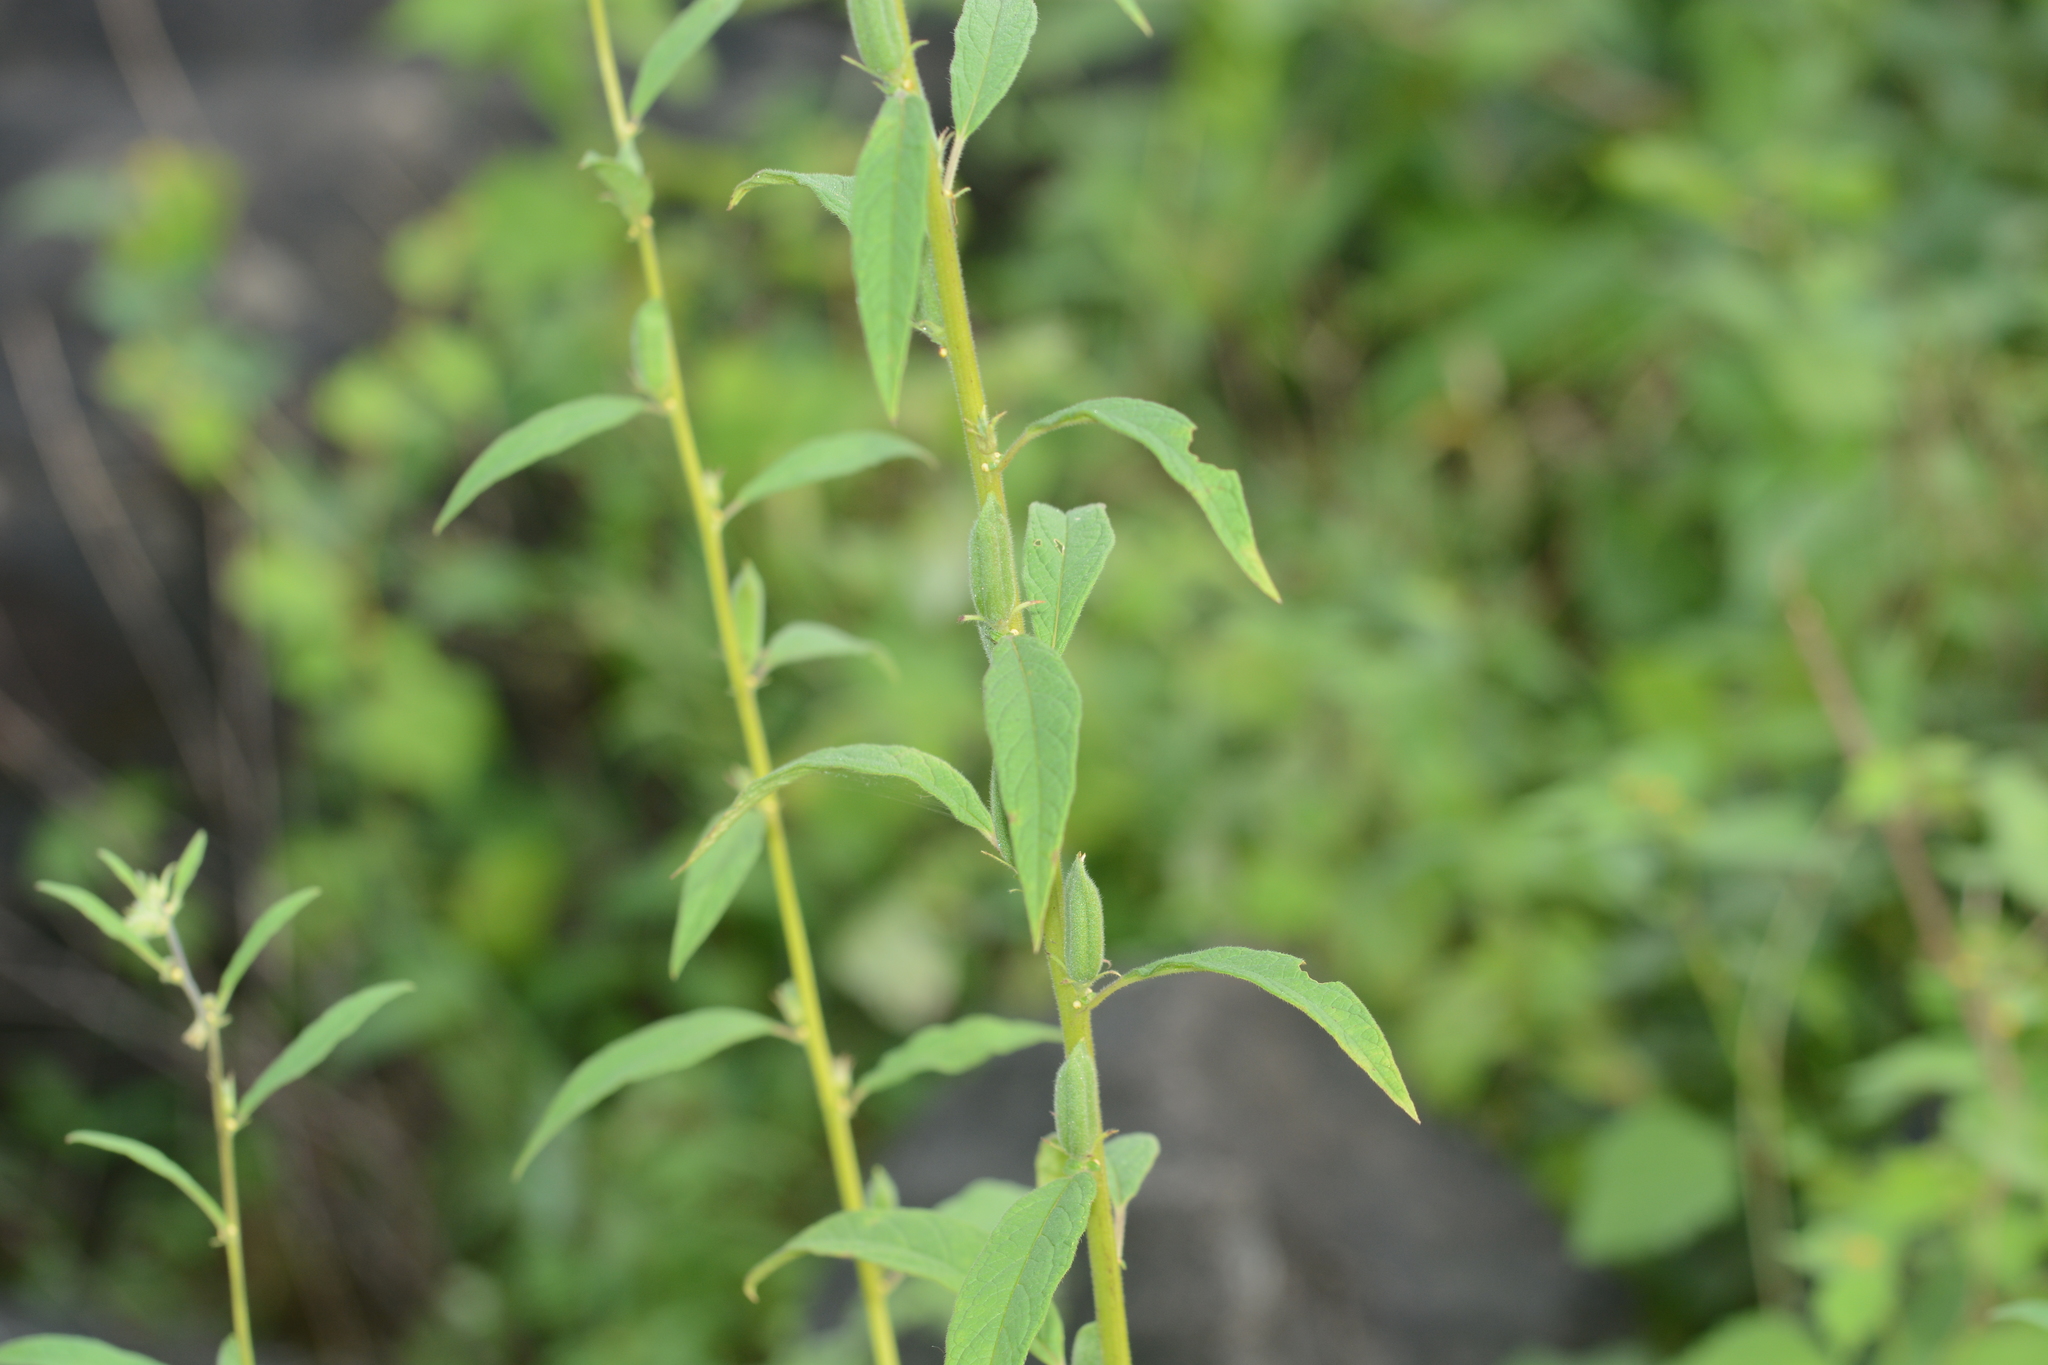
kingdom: Plantae
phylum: Tracheophyta
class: Magnoliopsida
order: Lamiales
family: Pedaliaceae
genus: Sesamum
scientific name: Sesamum indicum
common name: Sesame
